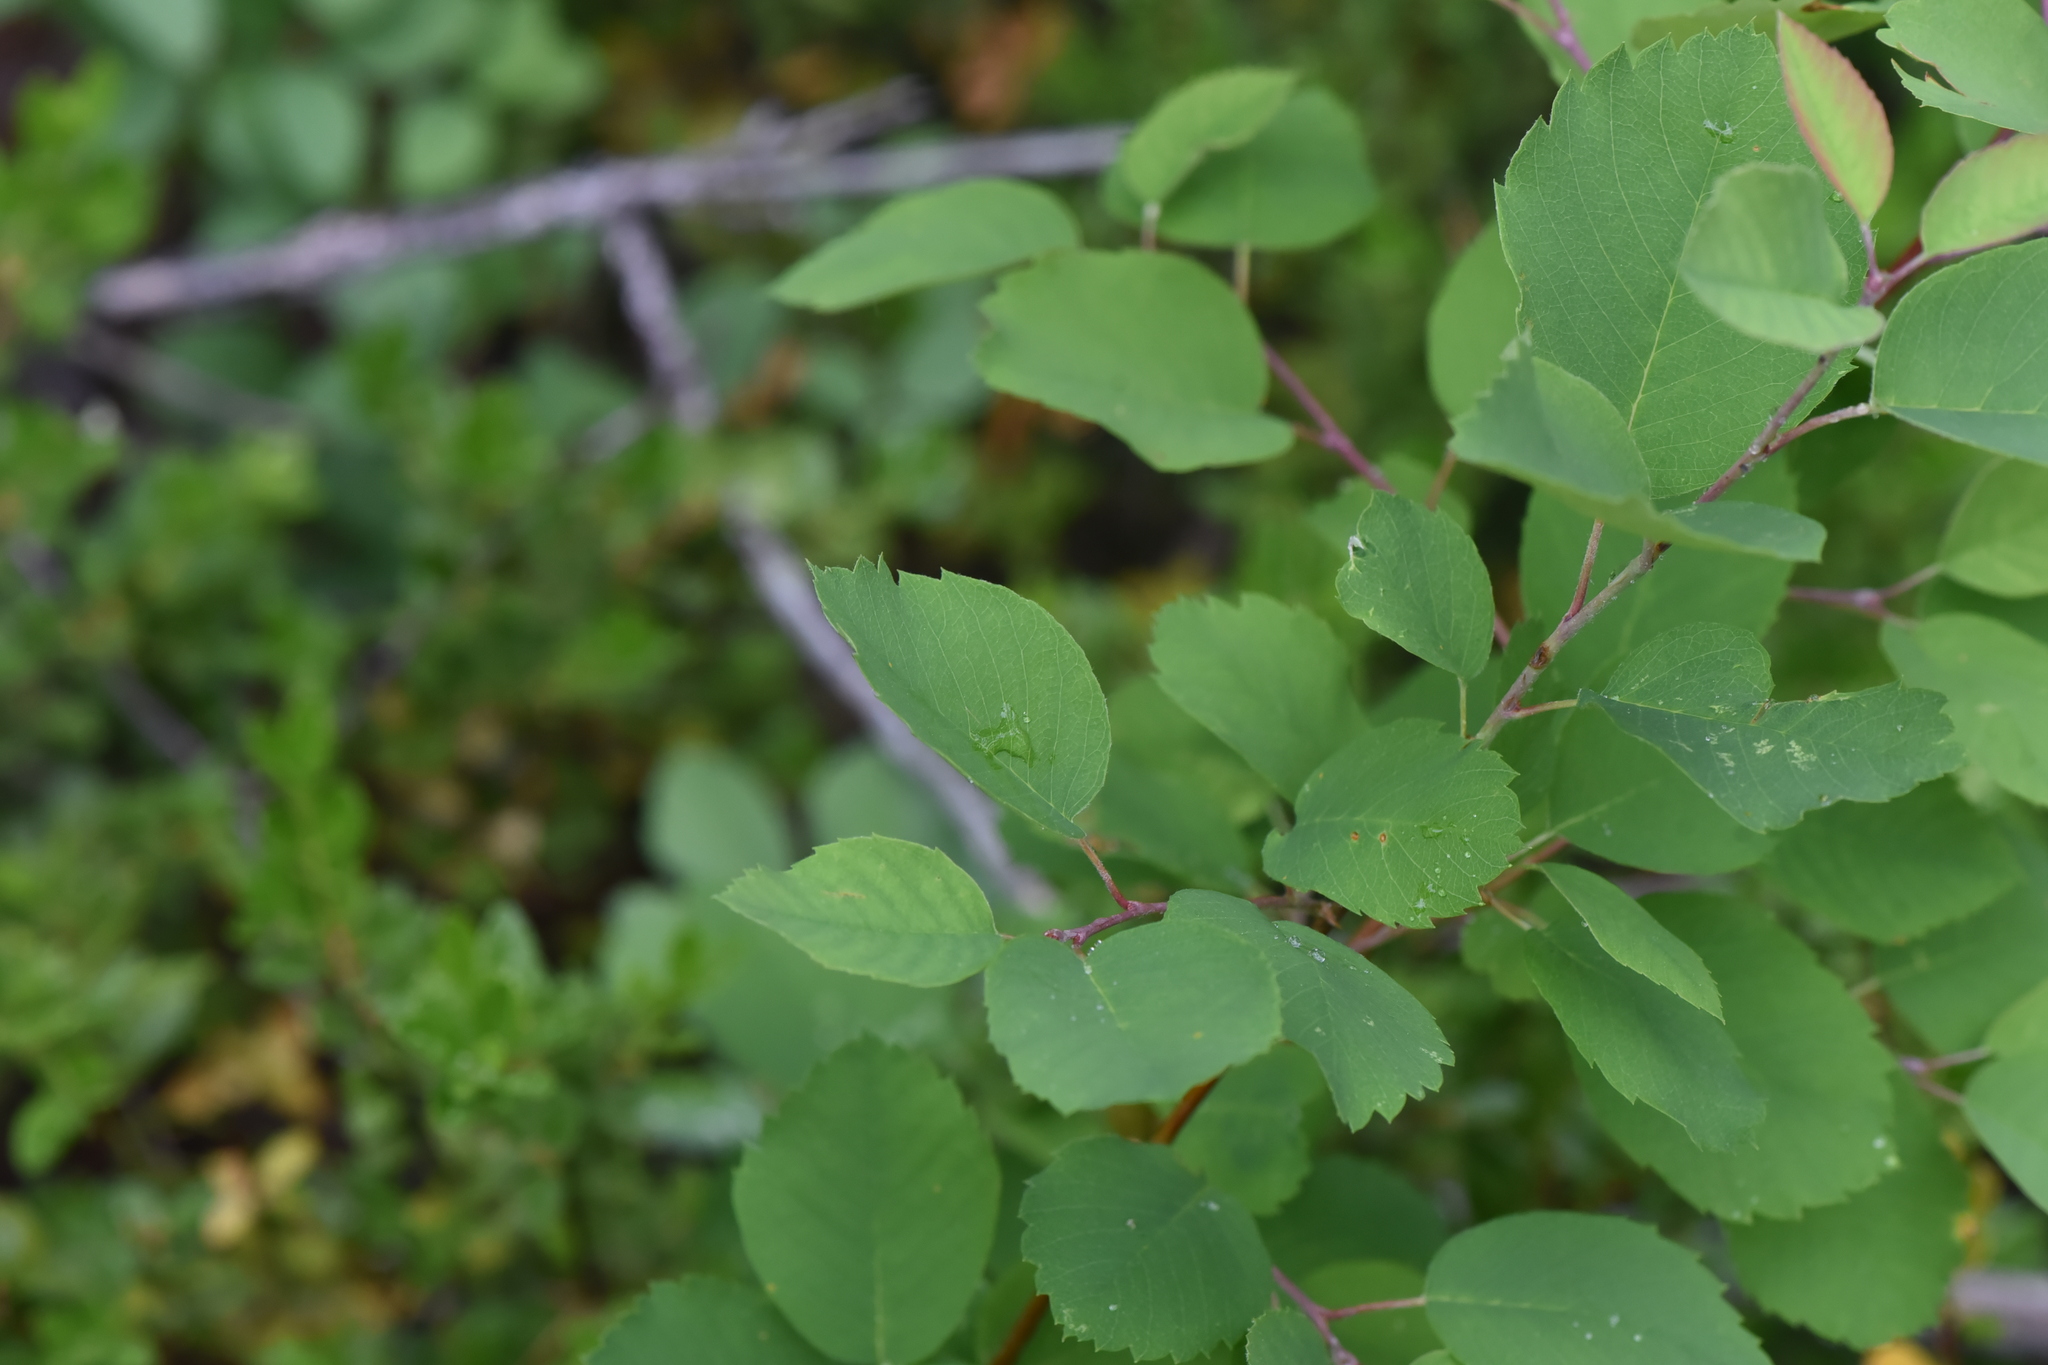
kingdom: Plantae
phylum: Tracheophyta
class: Magnoliopsida
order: Rosales
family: Rosaceae
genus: Amelanchier
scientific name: Amelanchier alnifolia
